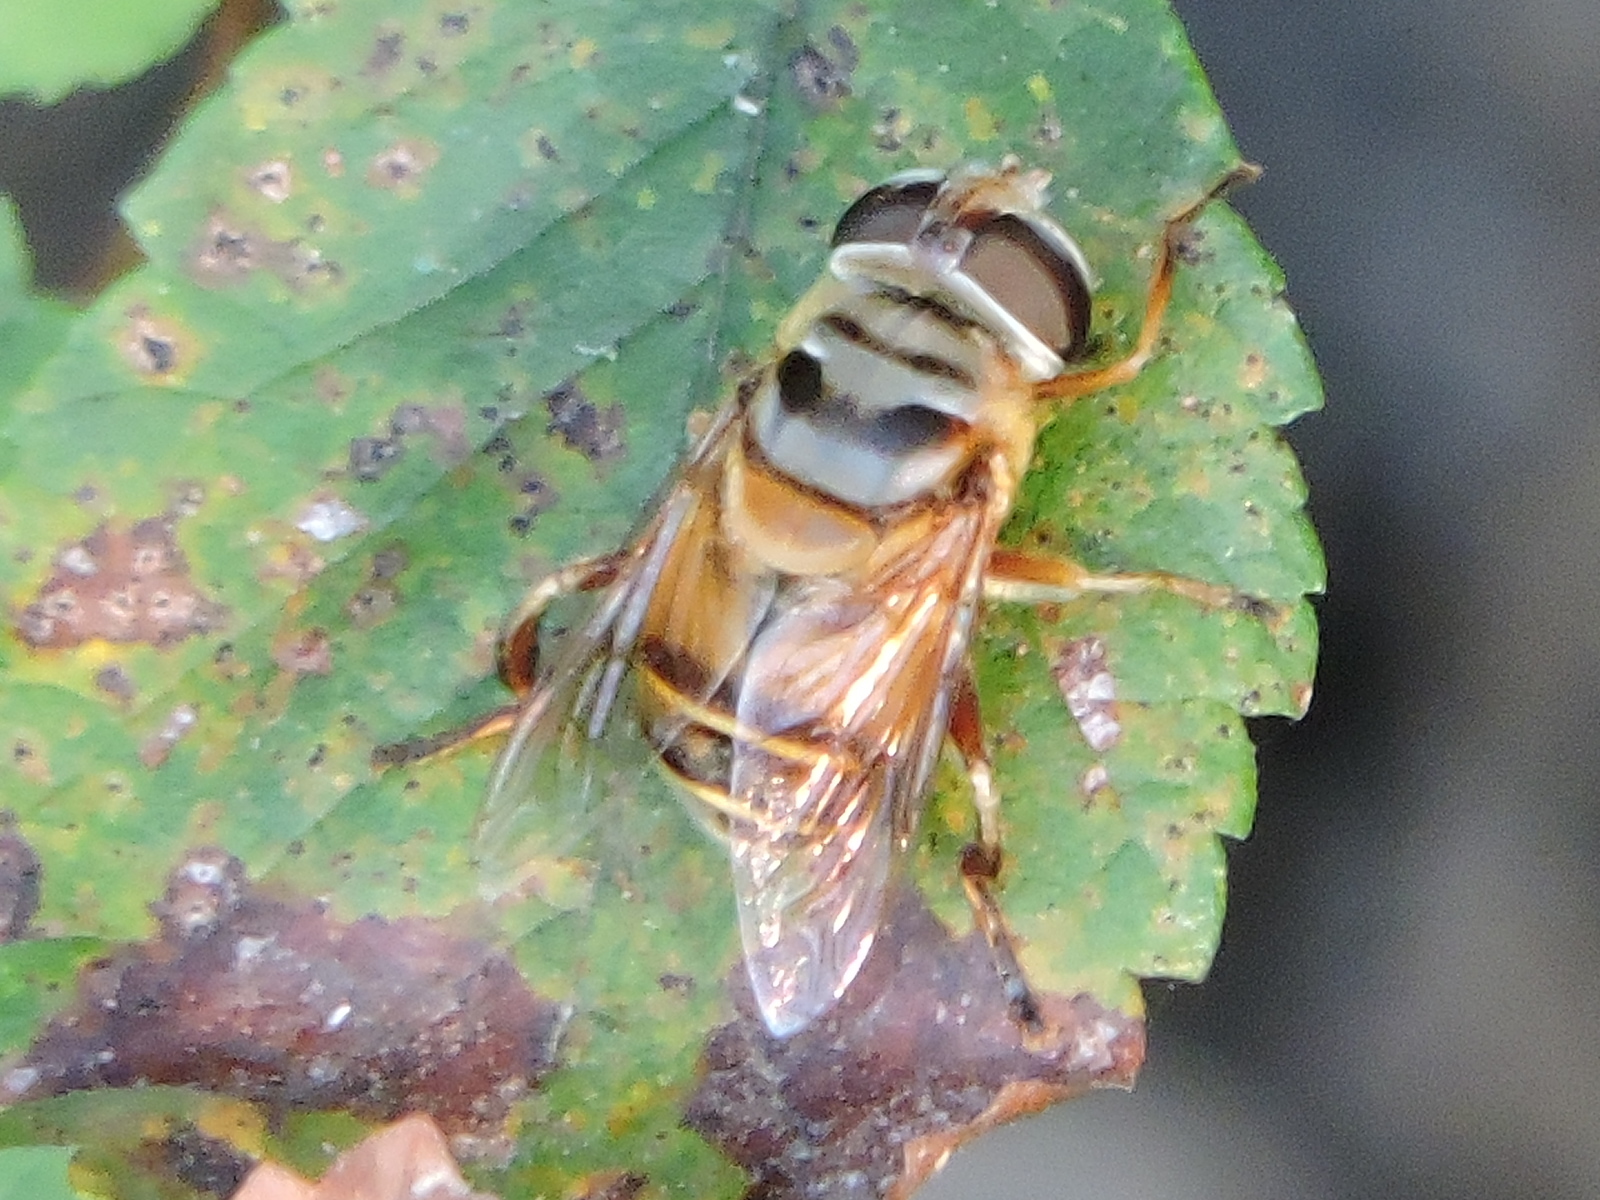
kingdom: Animalia
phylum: Arthropoda
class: Insecta
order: Diptera
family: Syrphidae
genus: Palpada
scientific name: Palpada vinetorum
